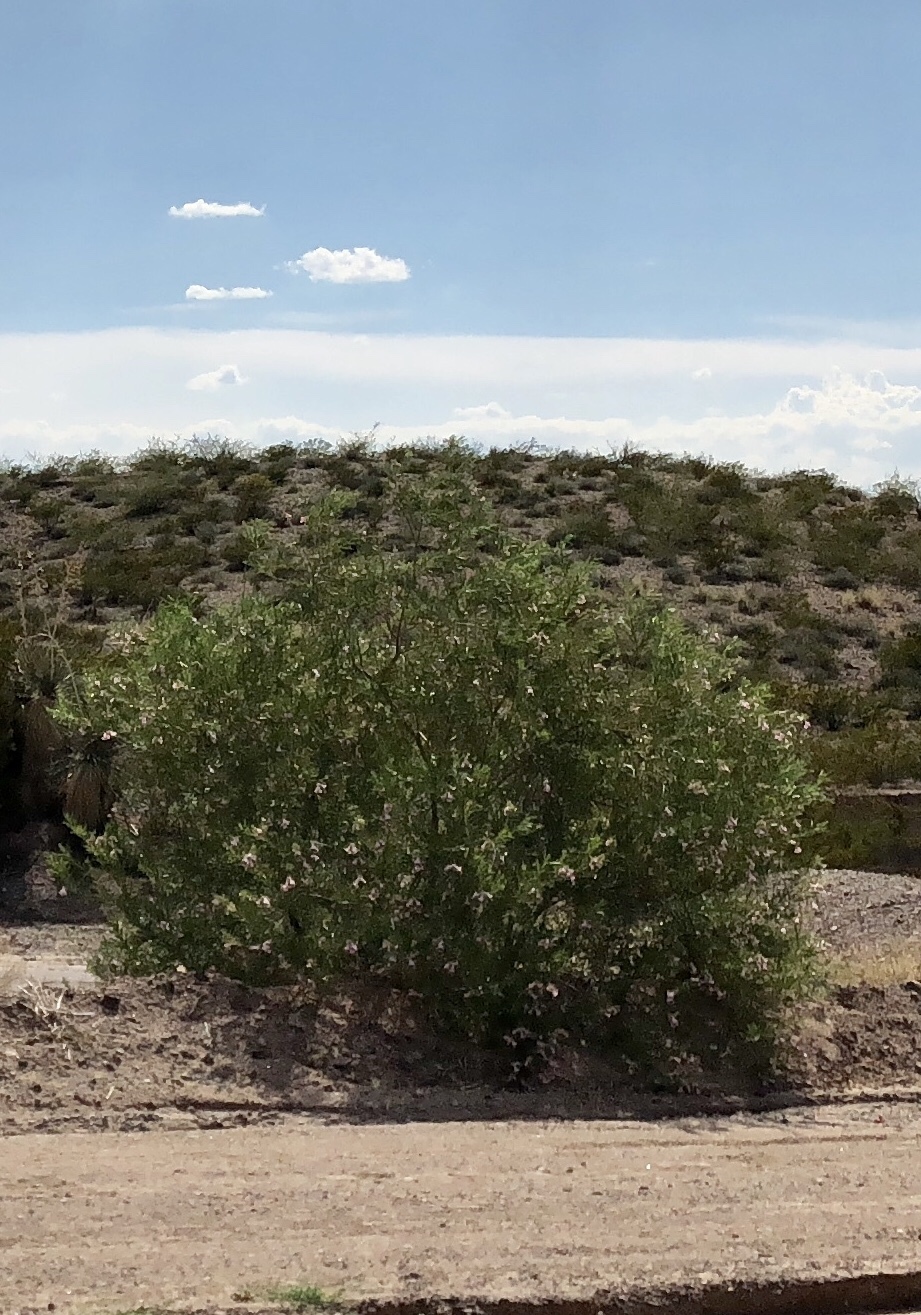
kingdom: Plantae
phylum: Tracheophyta
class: Magnoliopsida
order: Lamiales
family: Bignoniaceae
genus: Chilopsis
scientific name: Chilopsis linearis
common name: Desert-willow
